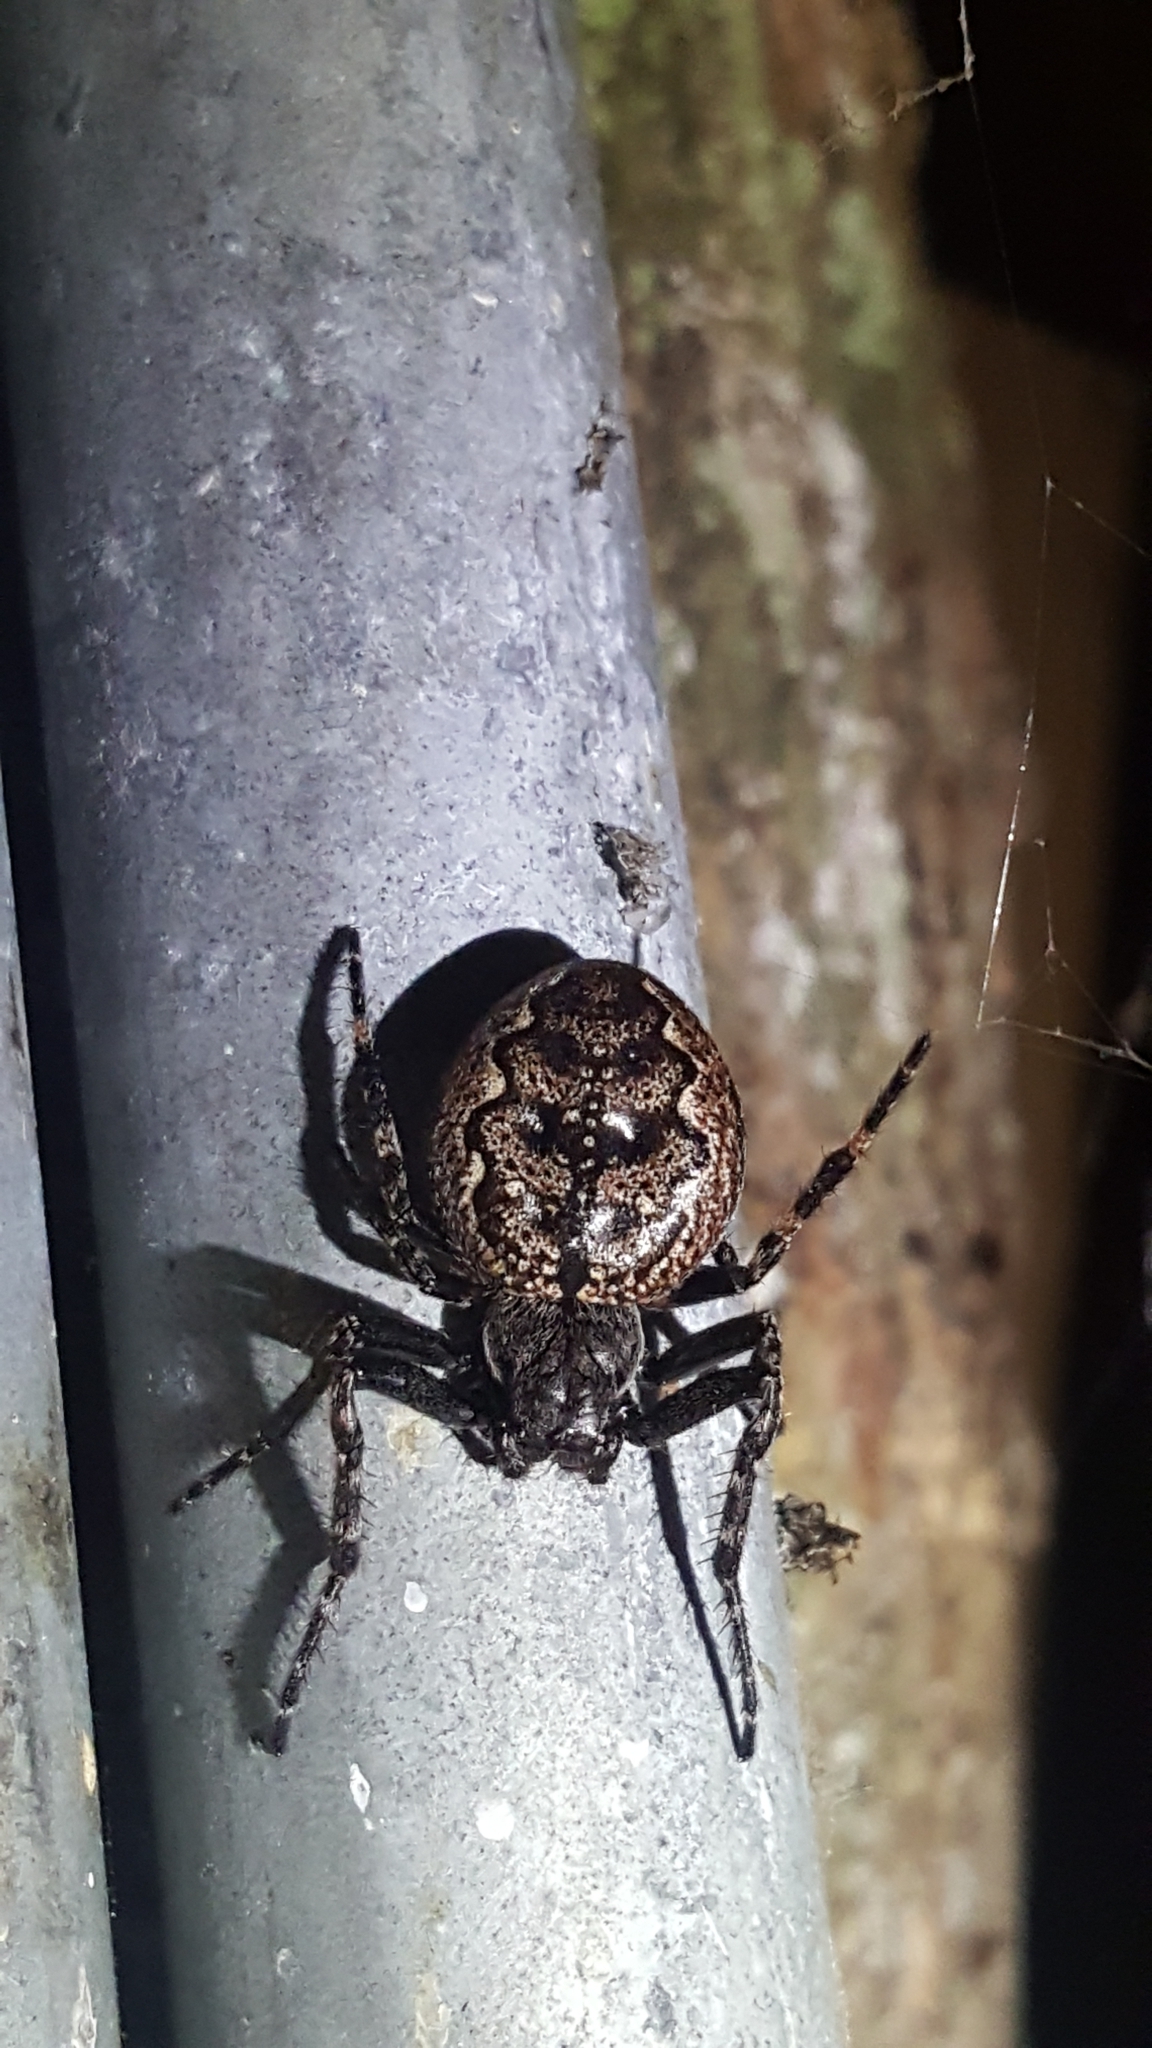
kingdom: Animalia
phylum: Arthropoda
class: Arachnida
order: Araneae
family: Araneidae
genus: Nuctenea
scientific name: Nuctenea umbratica
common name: Toad spider
